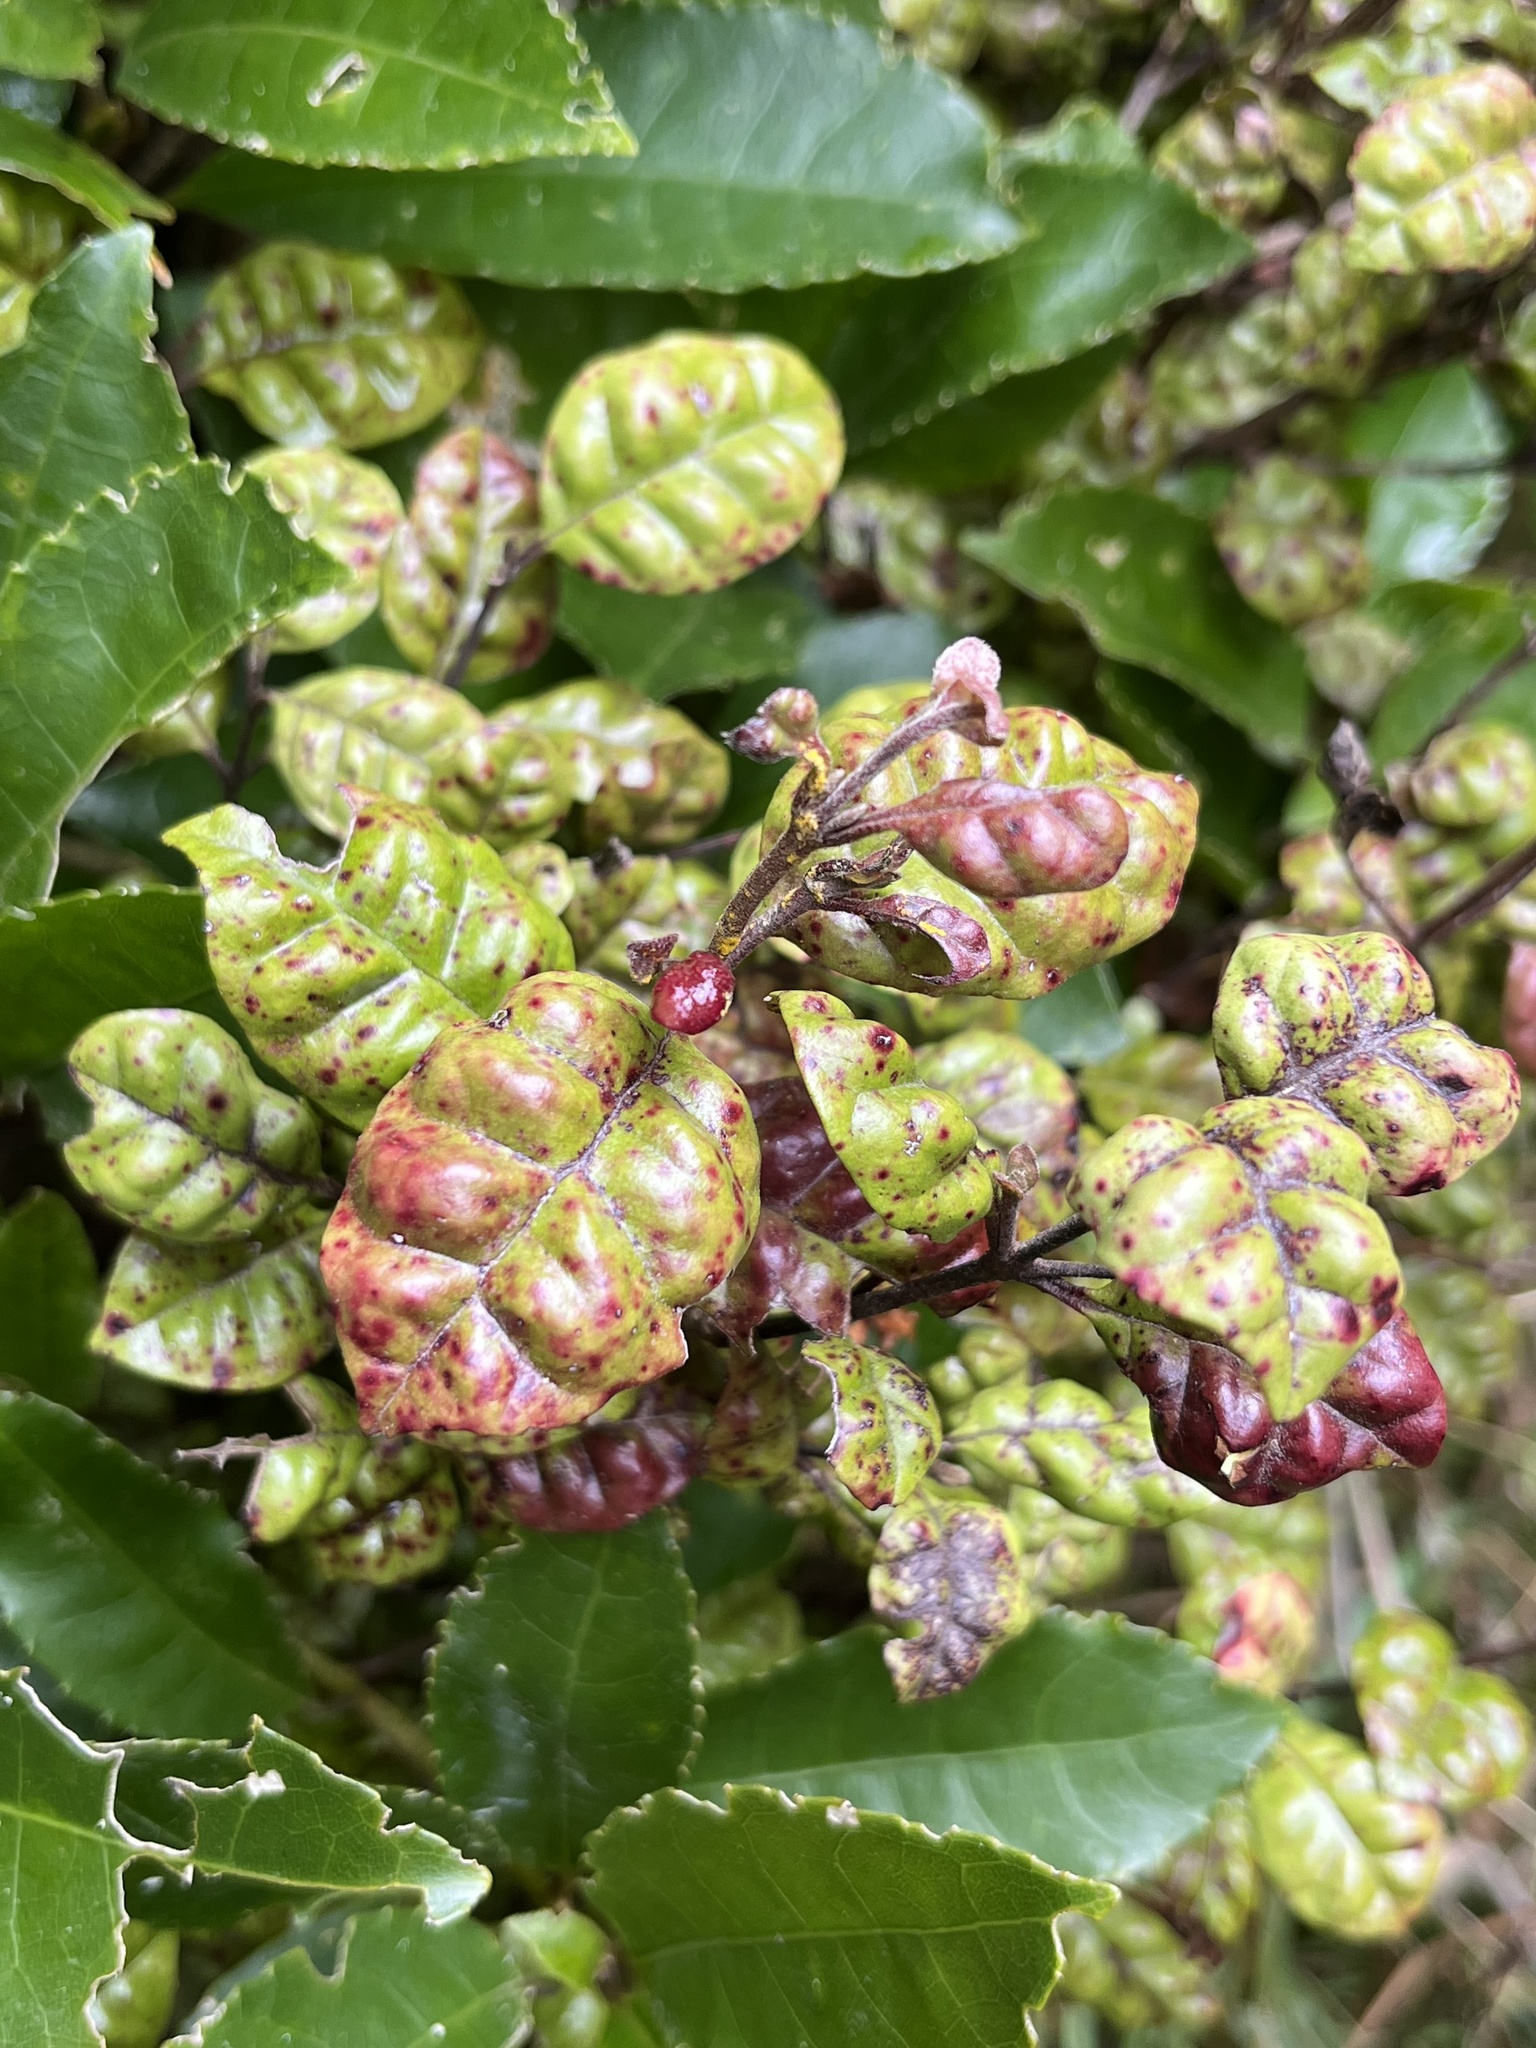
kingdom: Fungi
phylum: Basidiomycota
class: Pucciniomycetes
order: Pucciniales
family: Sphaerophragmiaceae
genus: Austropuccinia
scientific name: Austropuccinia psidii
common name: Myrtle rust
